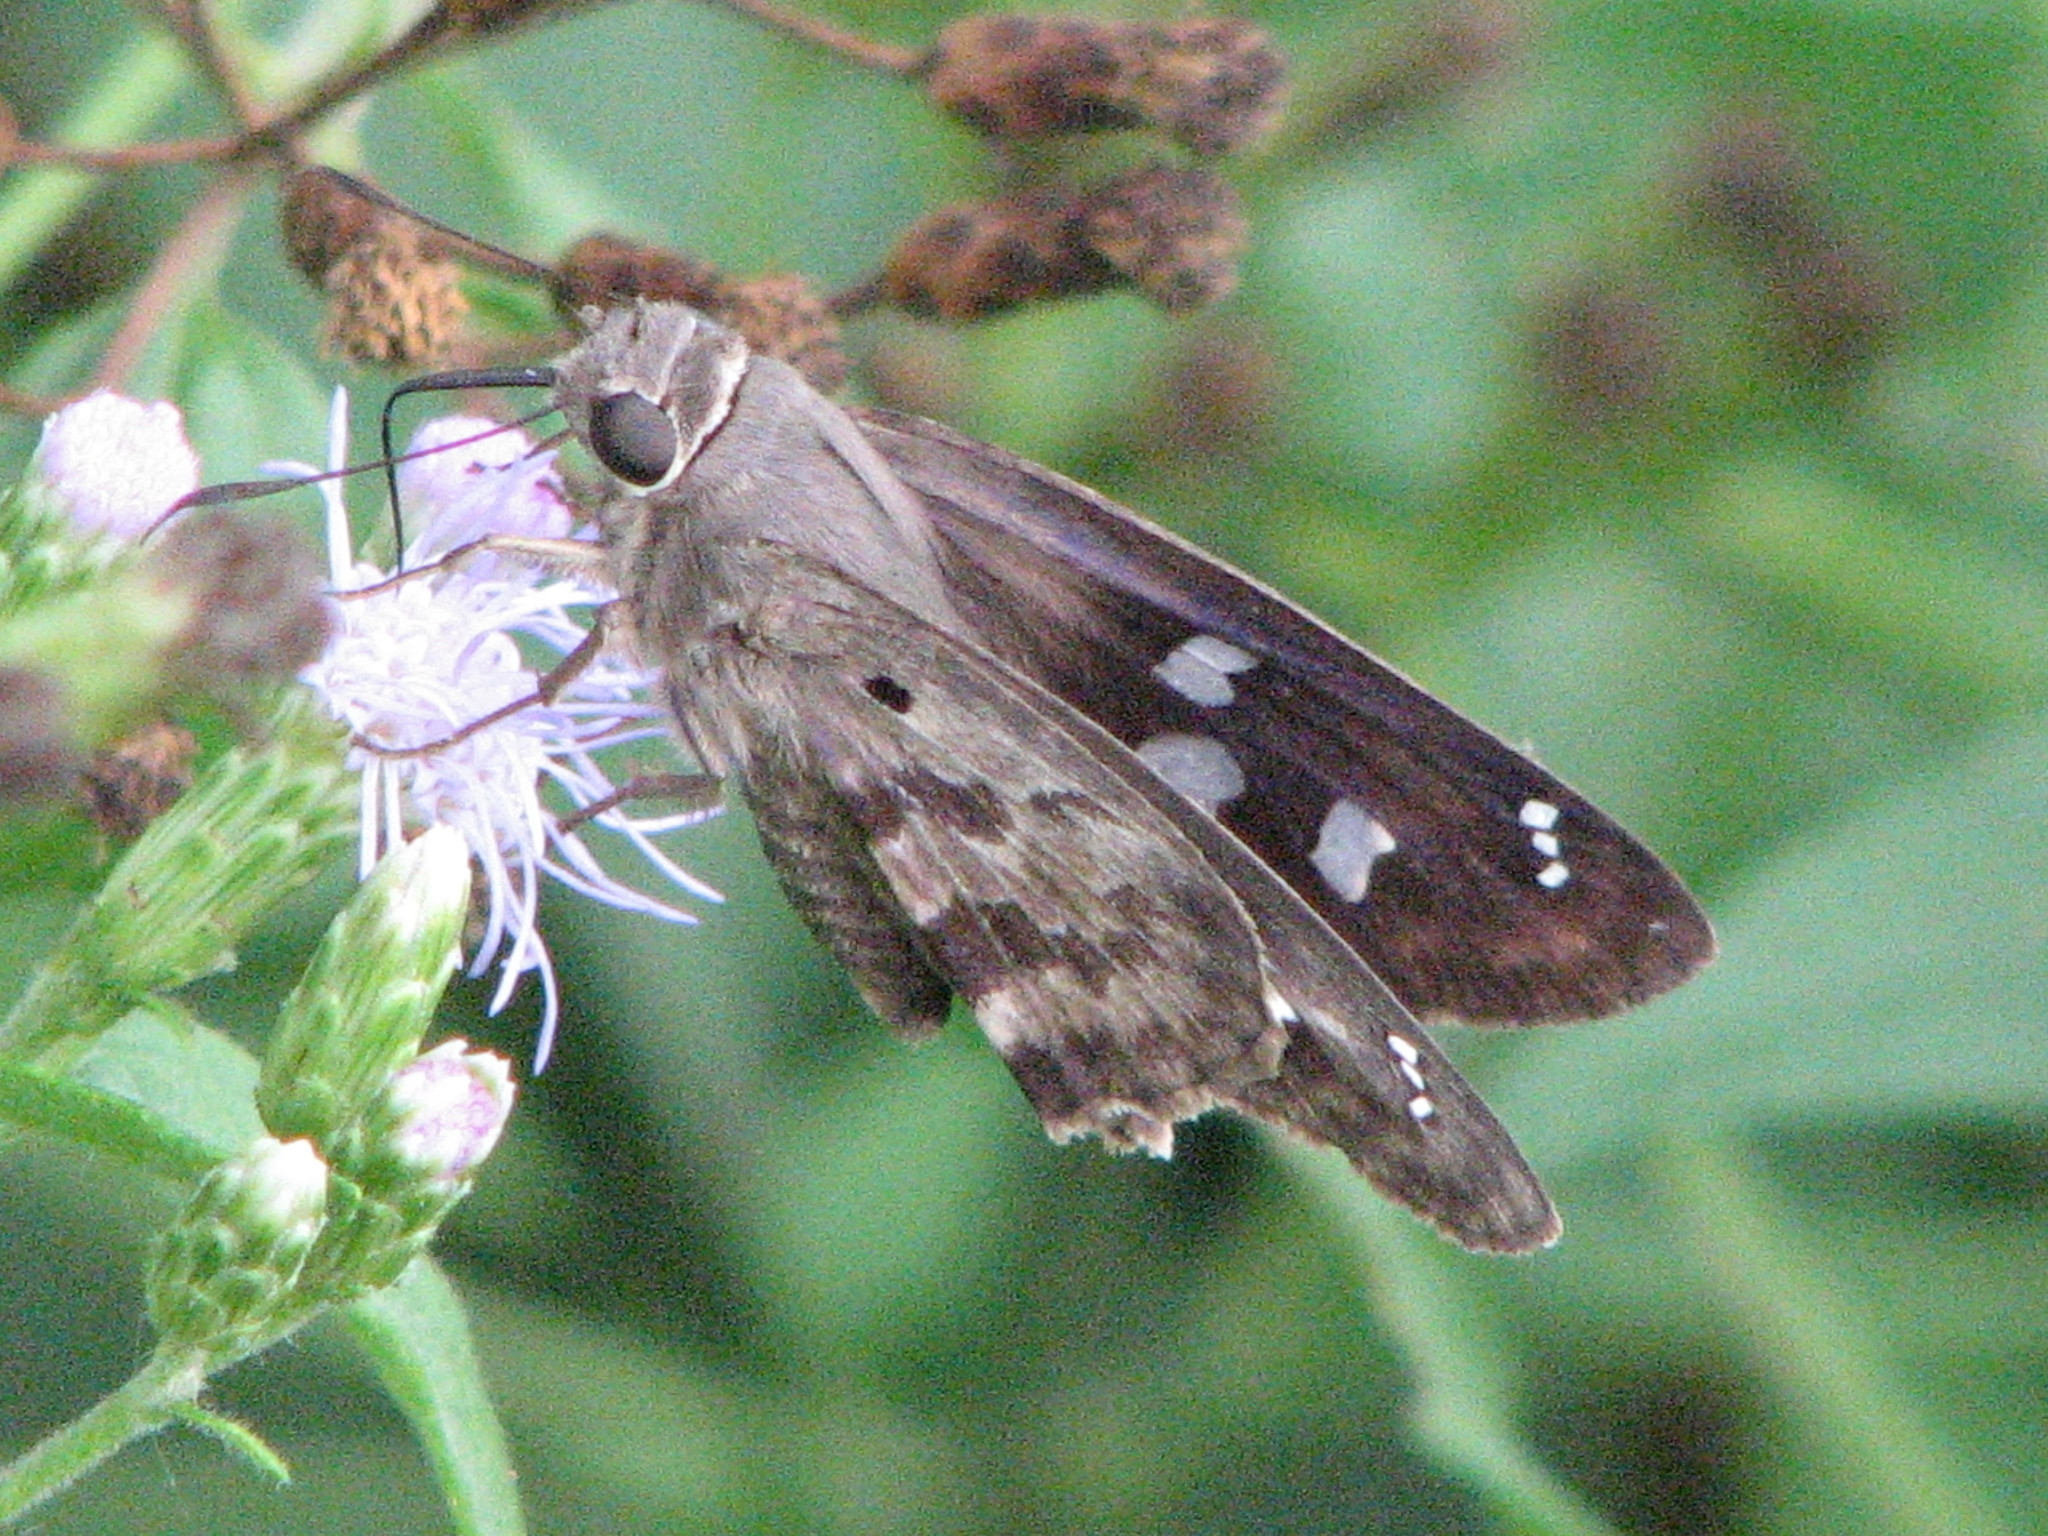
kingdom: Animalia
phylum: Arthropoda
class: Insecta
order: Lepidoptera
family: Hesperiidae
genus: Polygonus
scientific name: Polygonus leo
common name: Hammoch skipper
